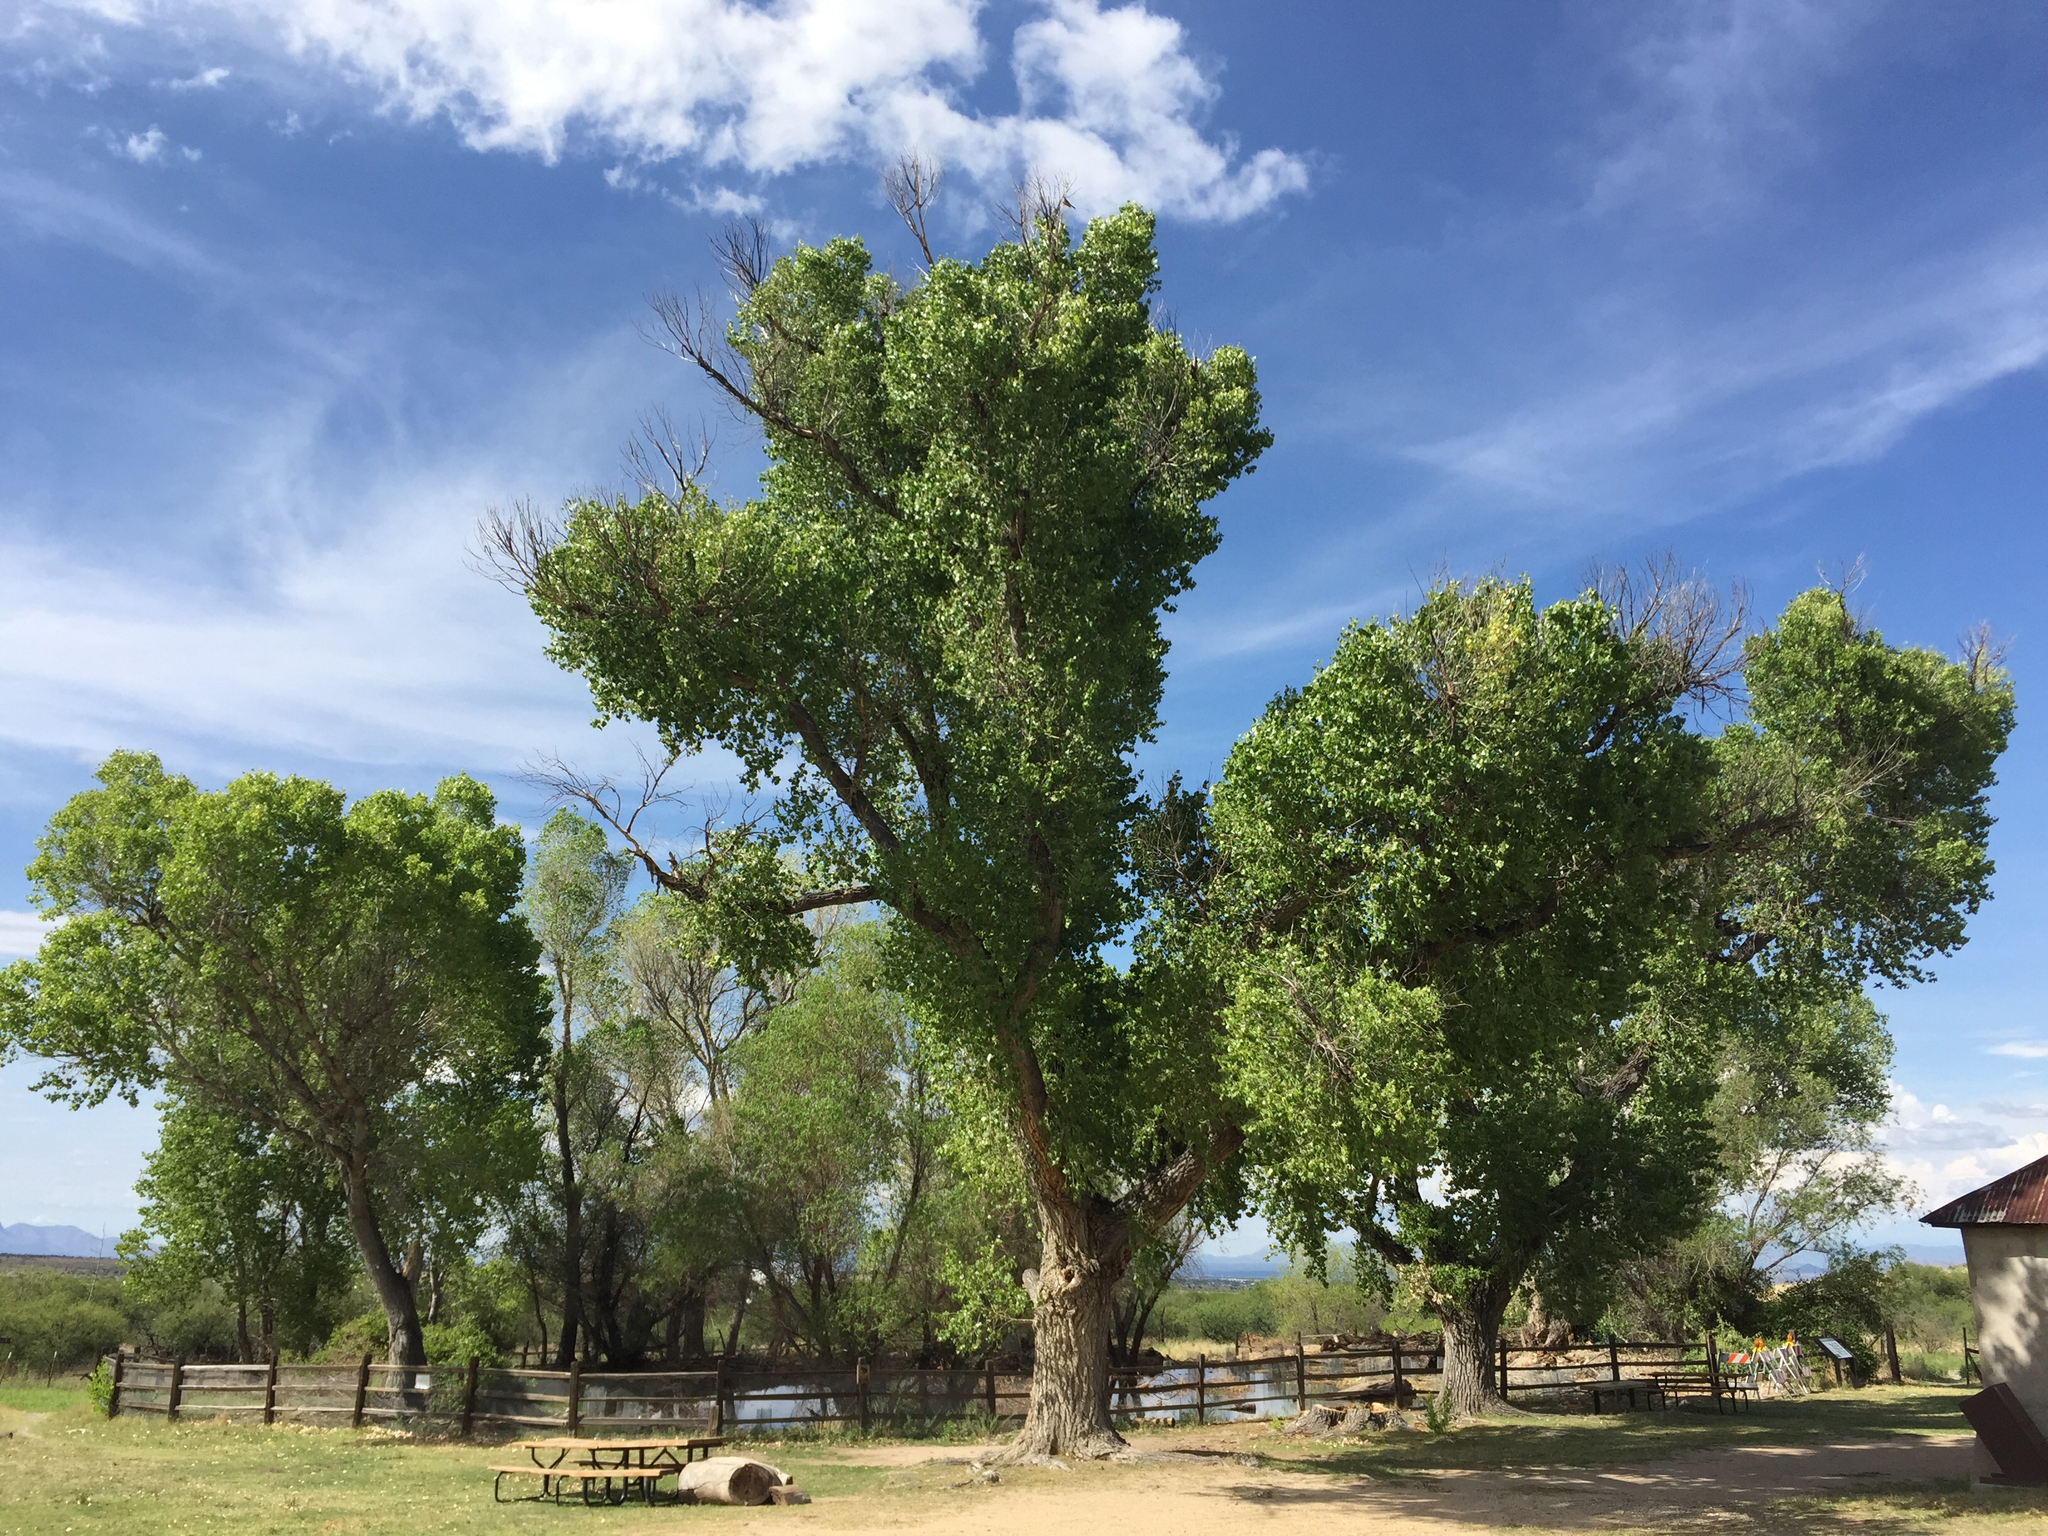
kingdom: Plantae
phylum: Tracheophyta
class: Magnoliopsida
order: Malpighiales
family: Salicaceae
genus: Populus
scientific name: Populus fremontii
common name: Fremont's cottonwood
